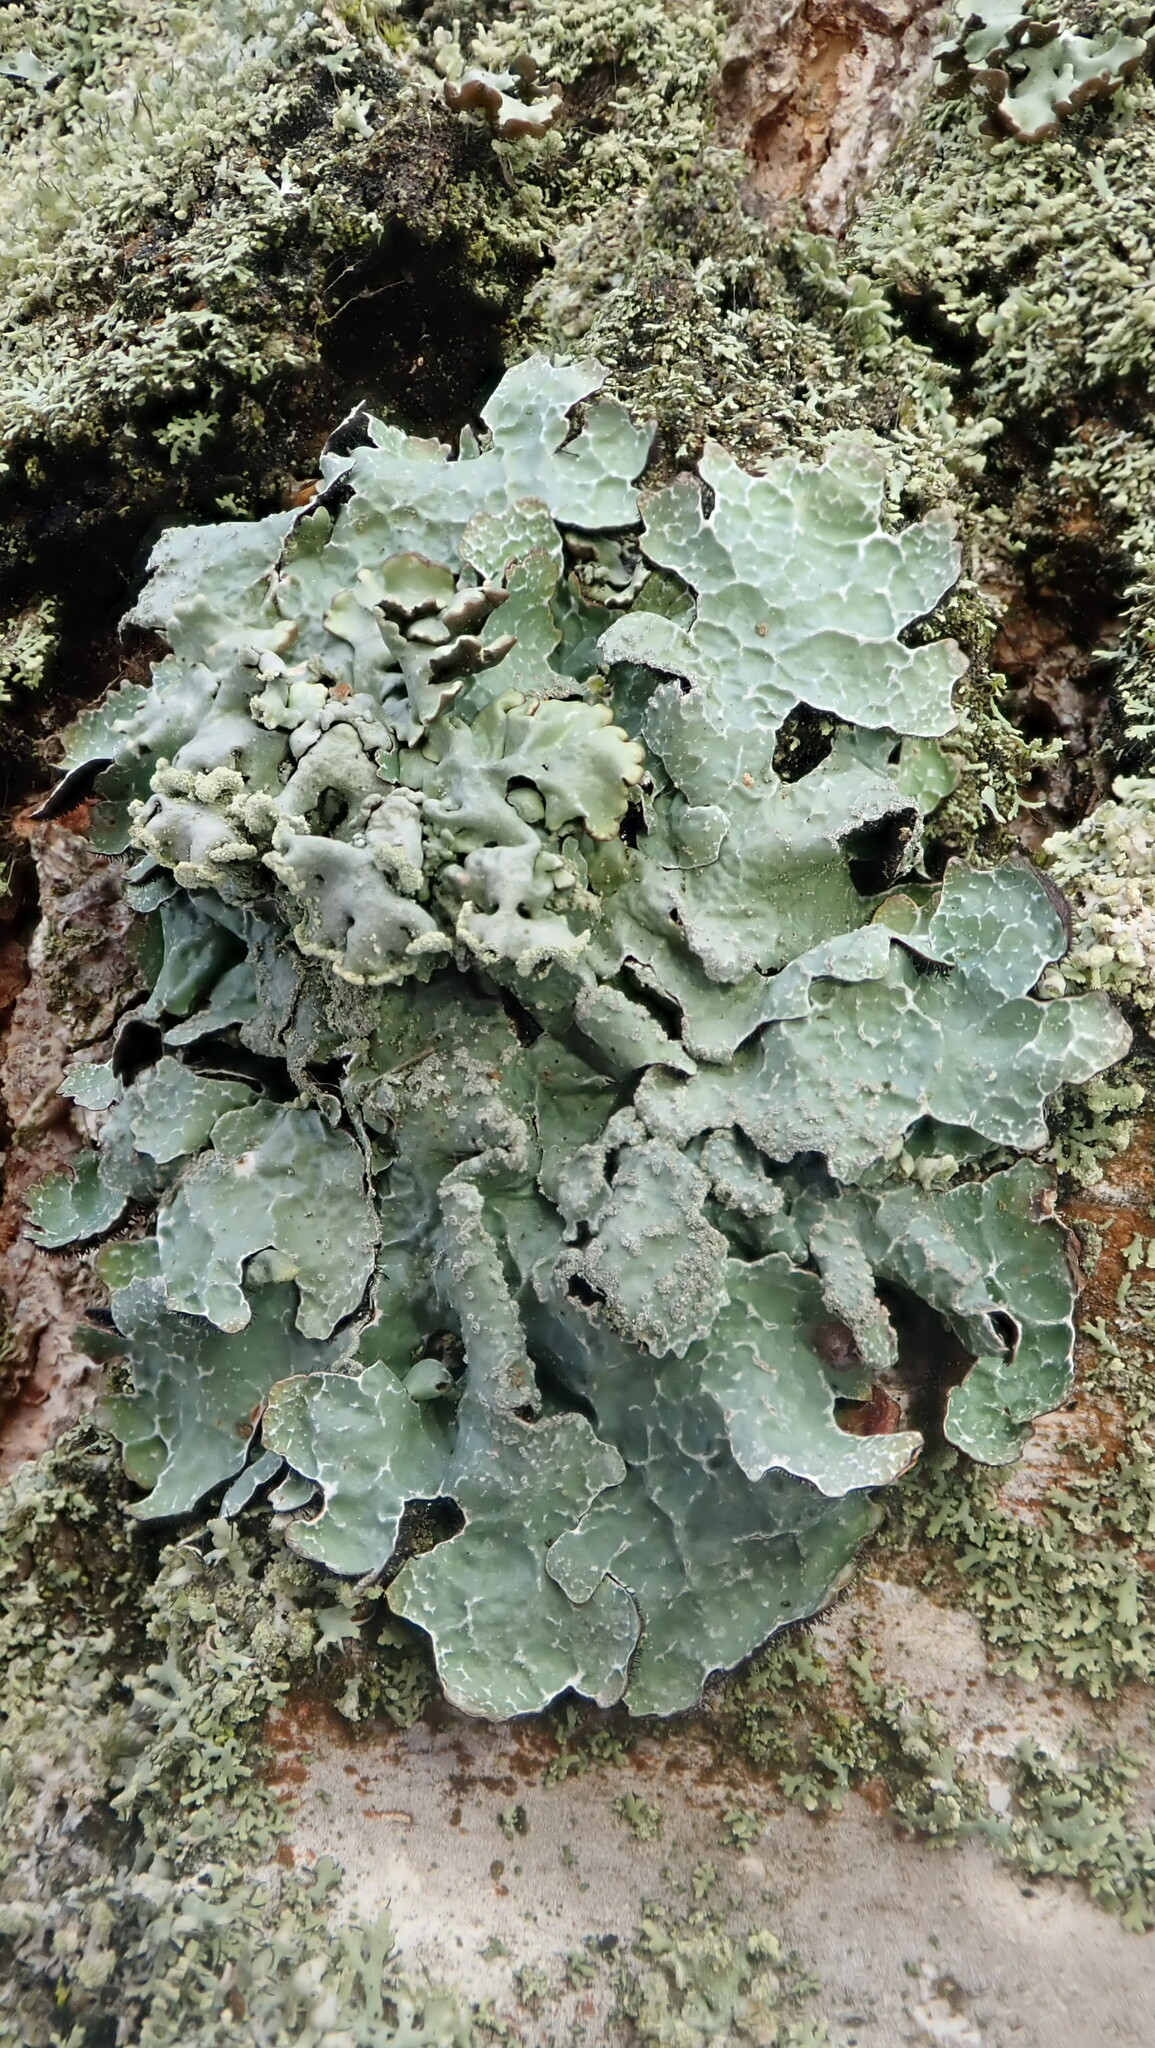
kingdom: Fungi
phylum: Ascomycota
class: Lecanoromycetes
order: Lecanorales
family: Parmeliaceae
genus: Parmelia
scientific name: Parmelia sulcata
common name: Netted shield lichen
